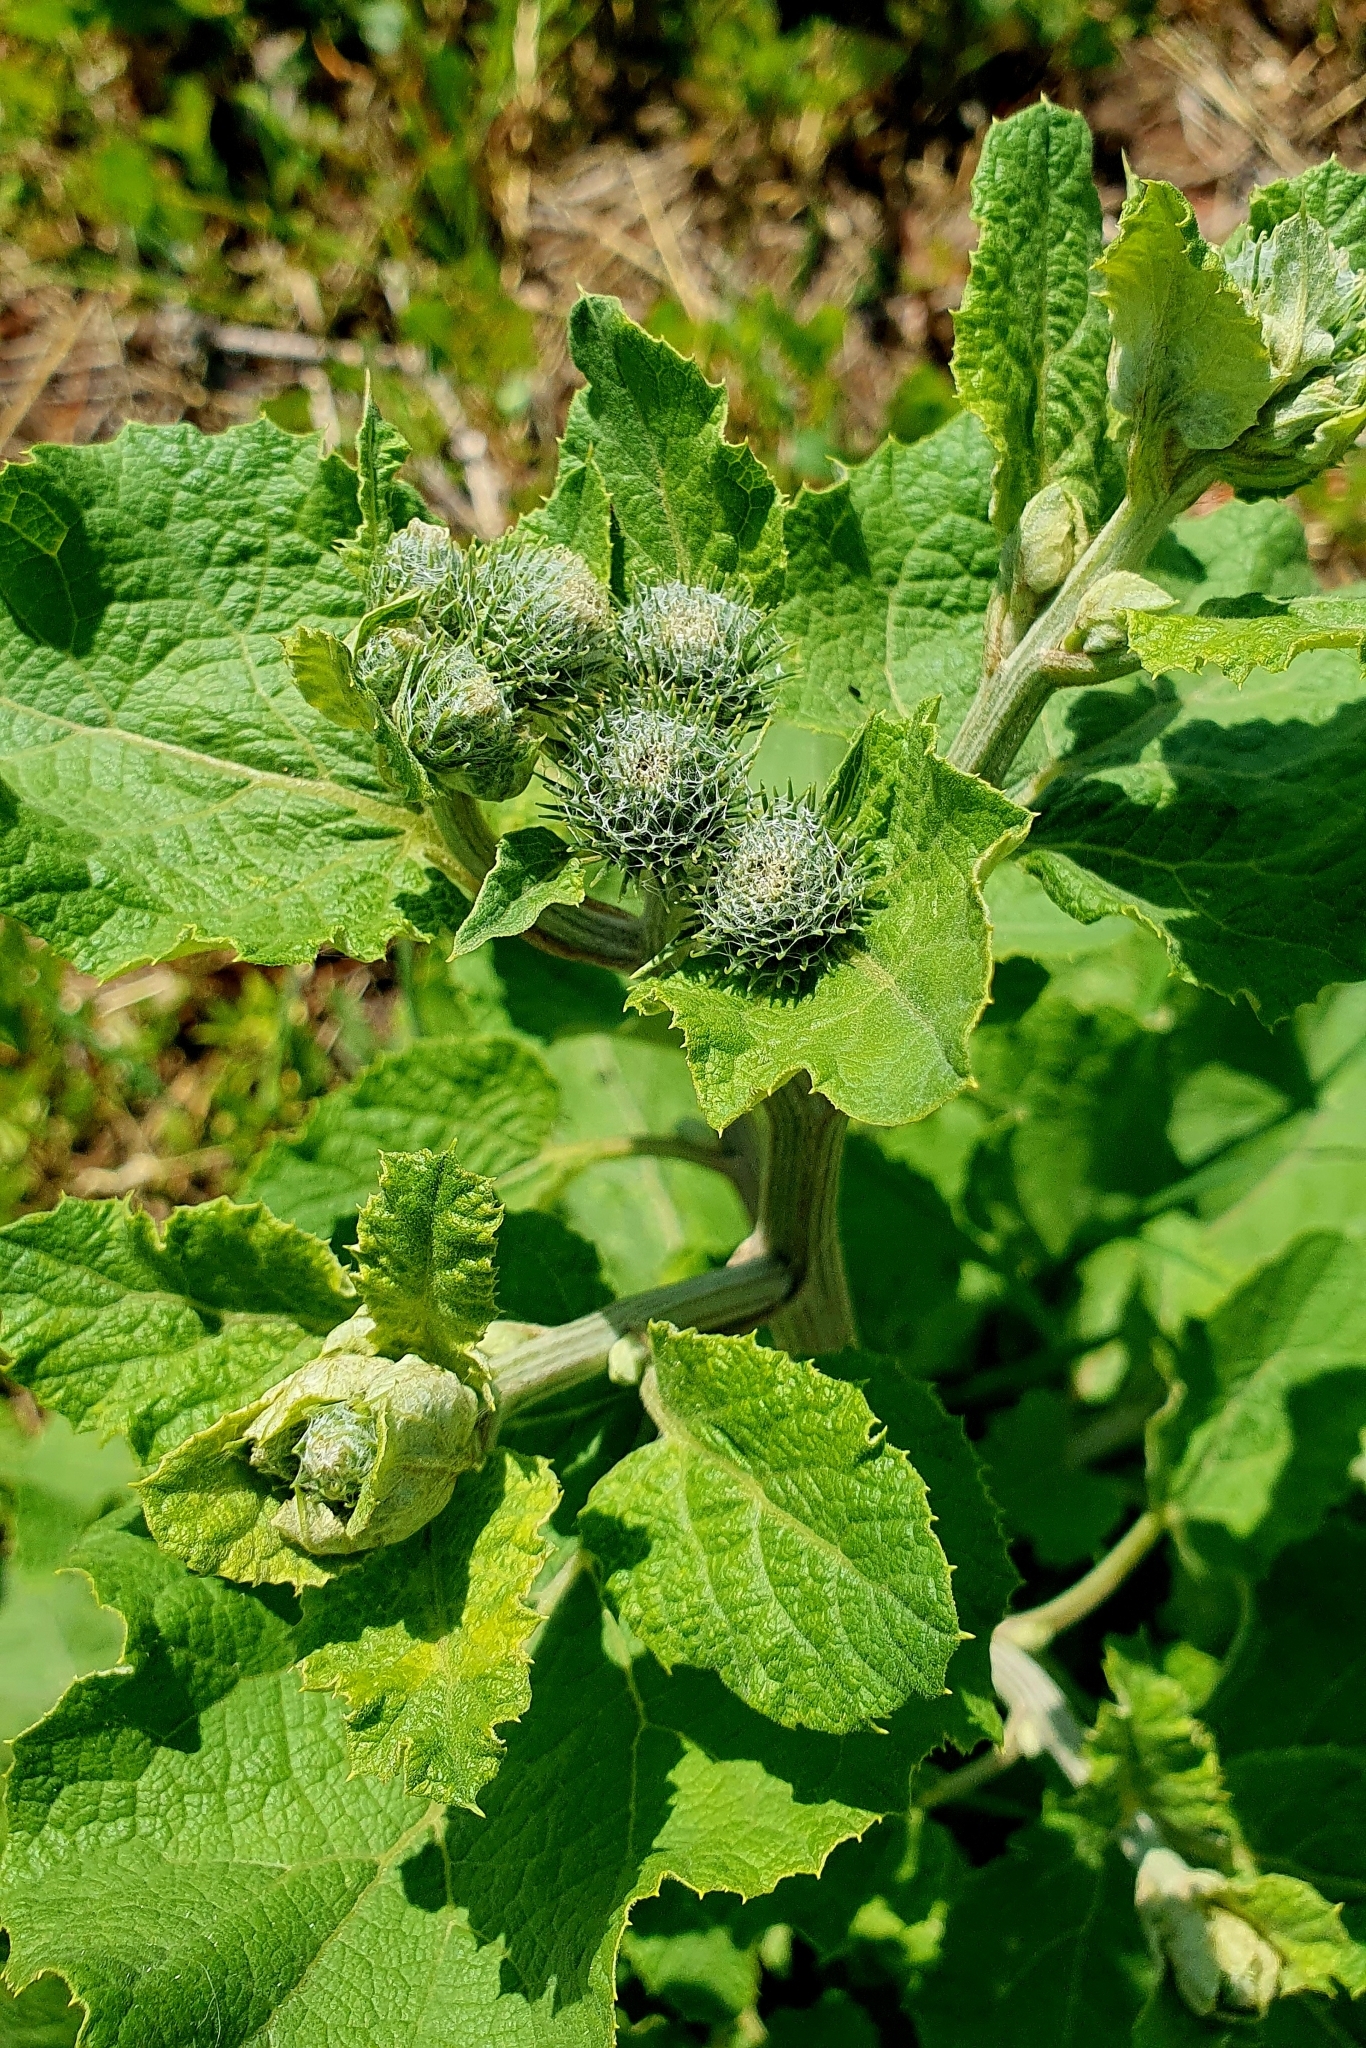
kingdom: Plantae
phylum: Tracheophyta
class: Magnoliopsida
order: Asterales
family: Asteraceae
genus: Arctium
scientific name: Arctium tomentosum
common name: Woolly burdock
